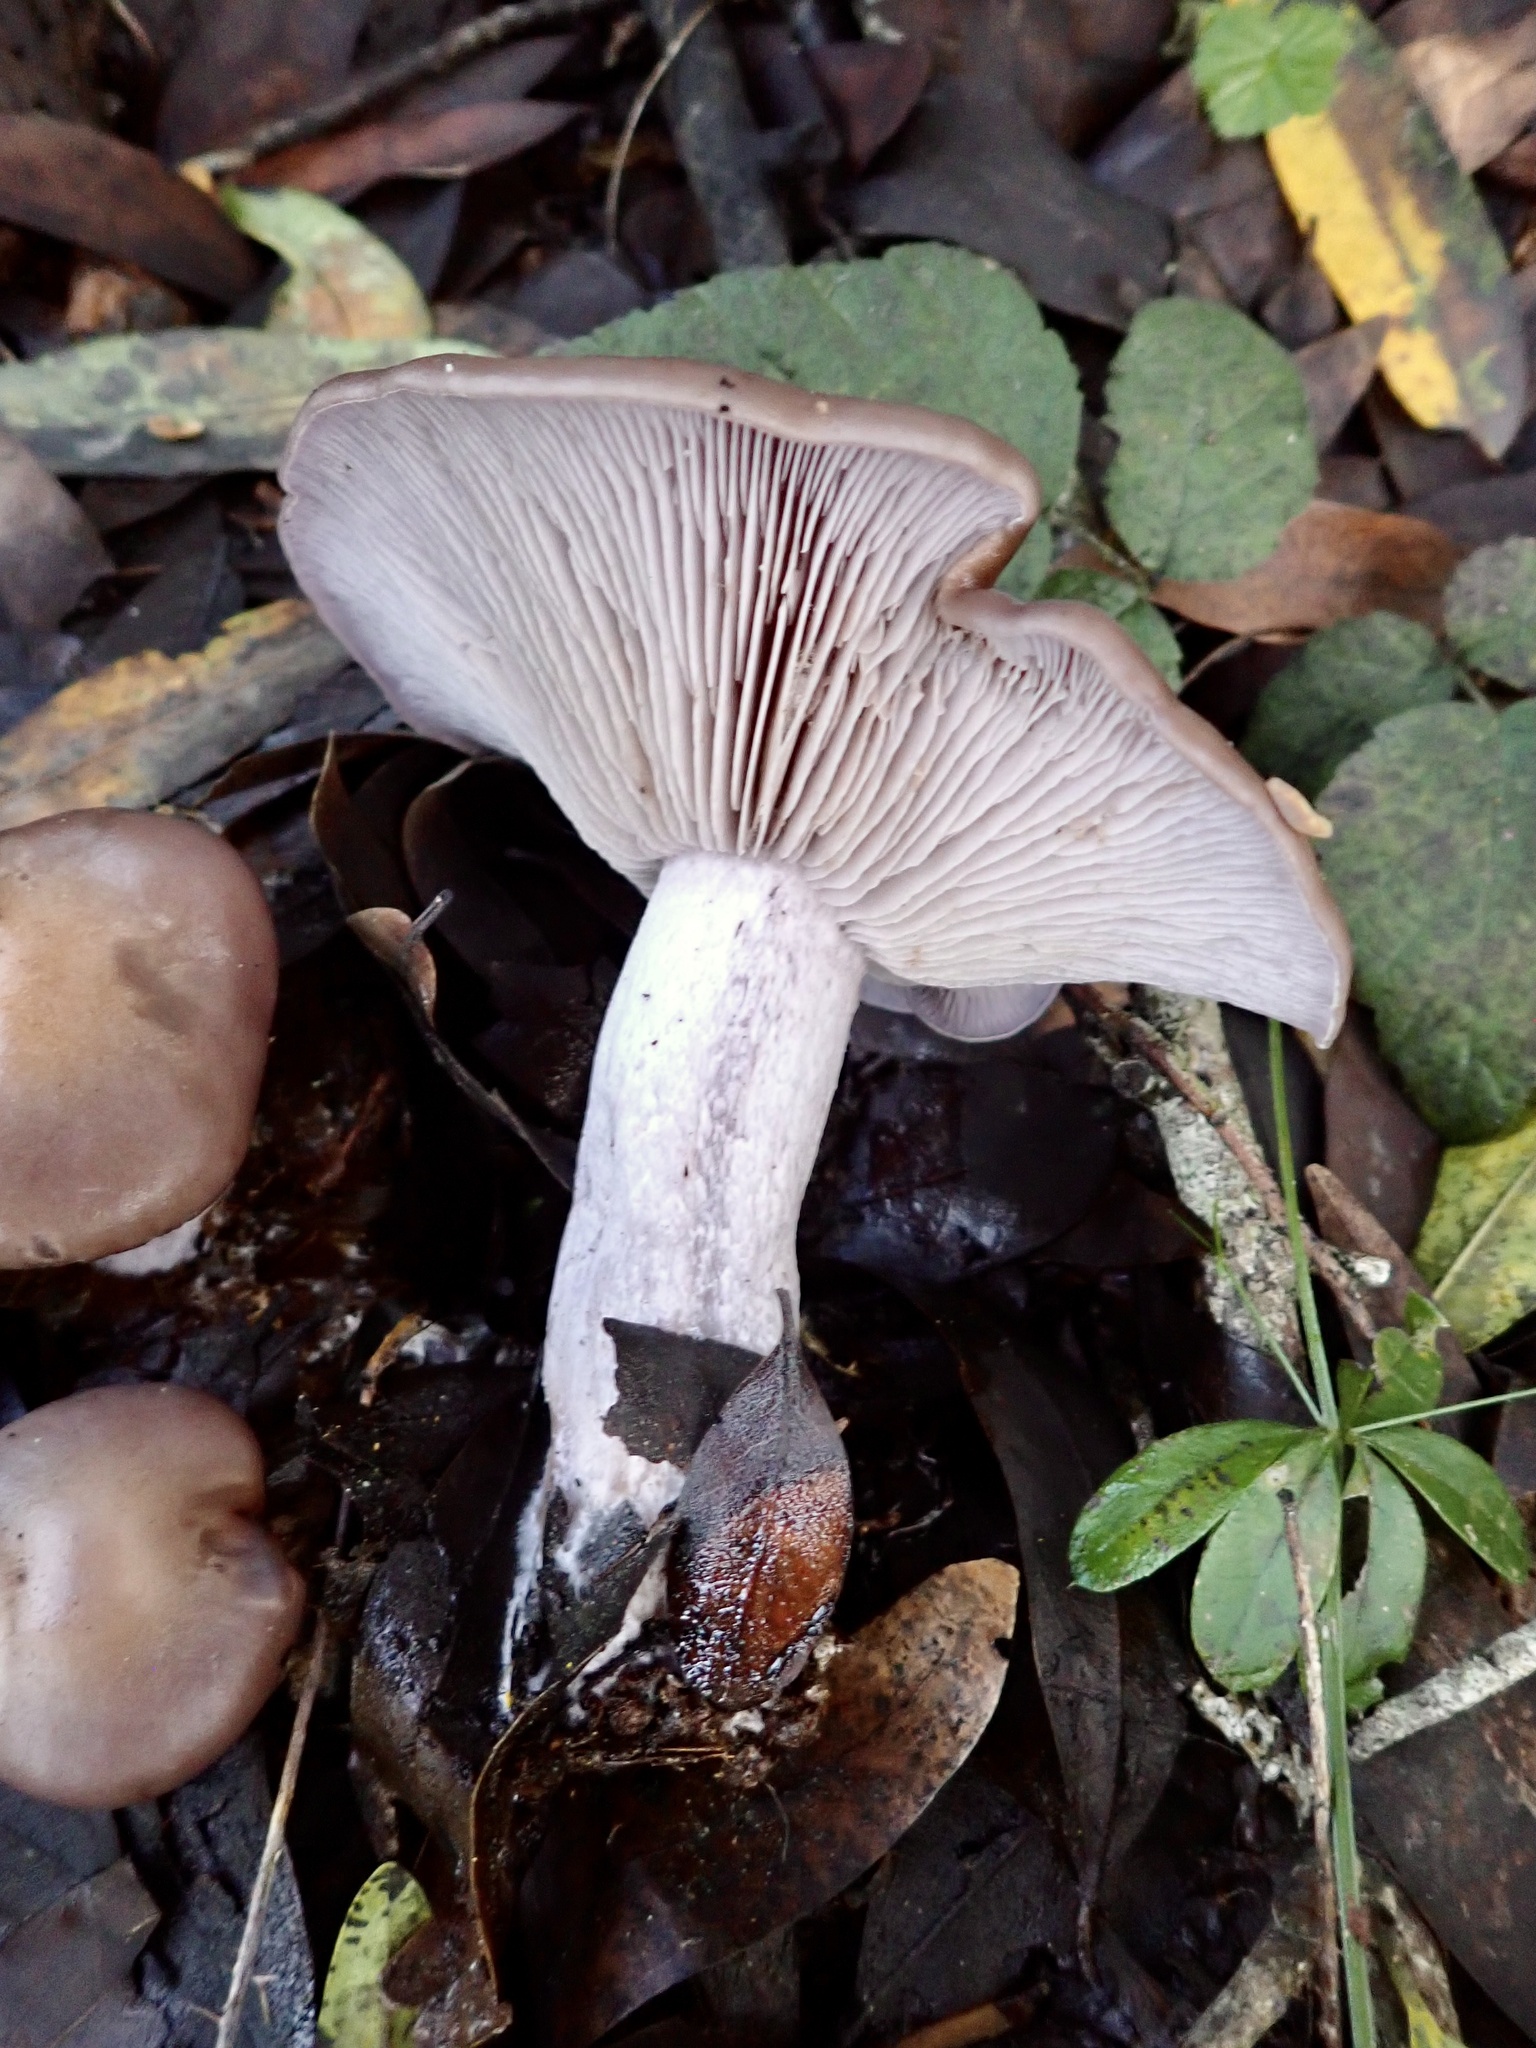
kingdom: Fungi
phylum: Basidiomycota
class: Agaricomycetes
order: Agaricales
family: Tricholomataceae
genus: Collybia
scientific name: Collybia
